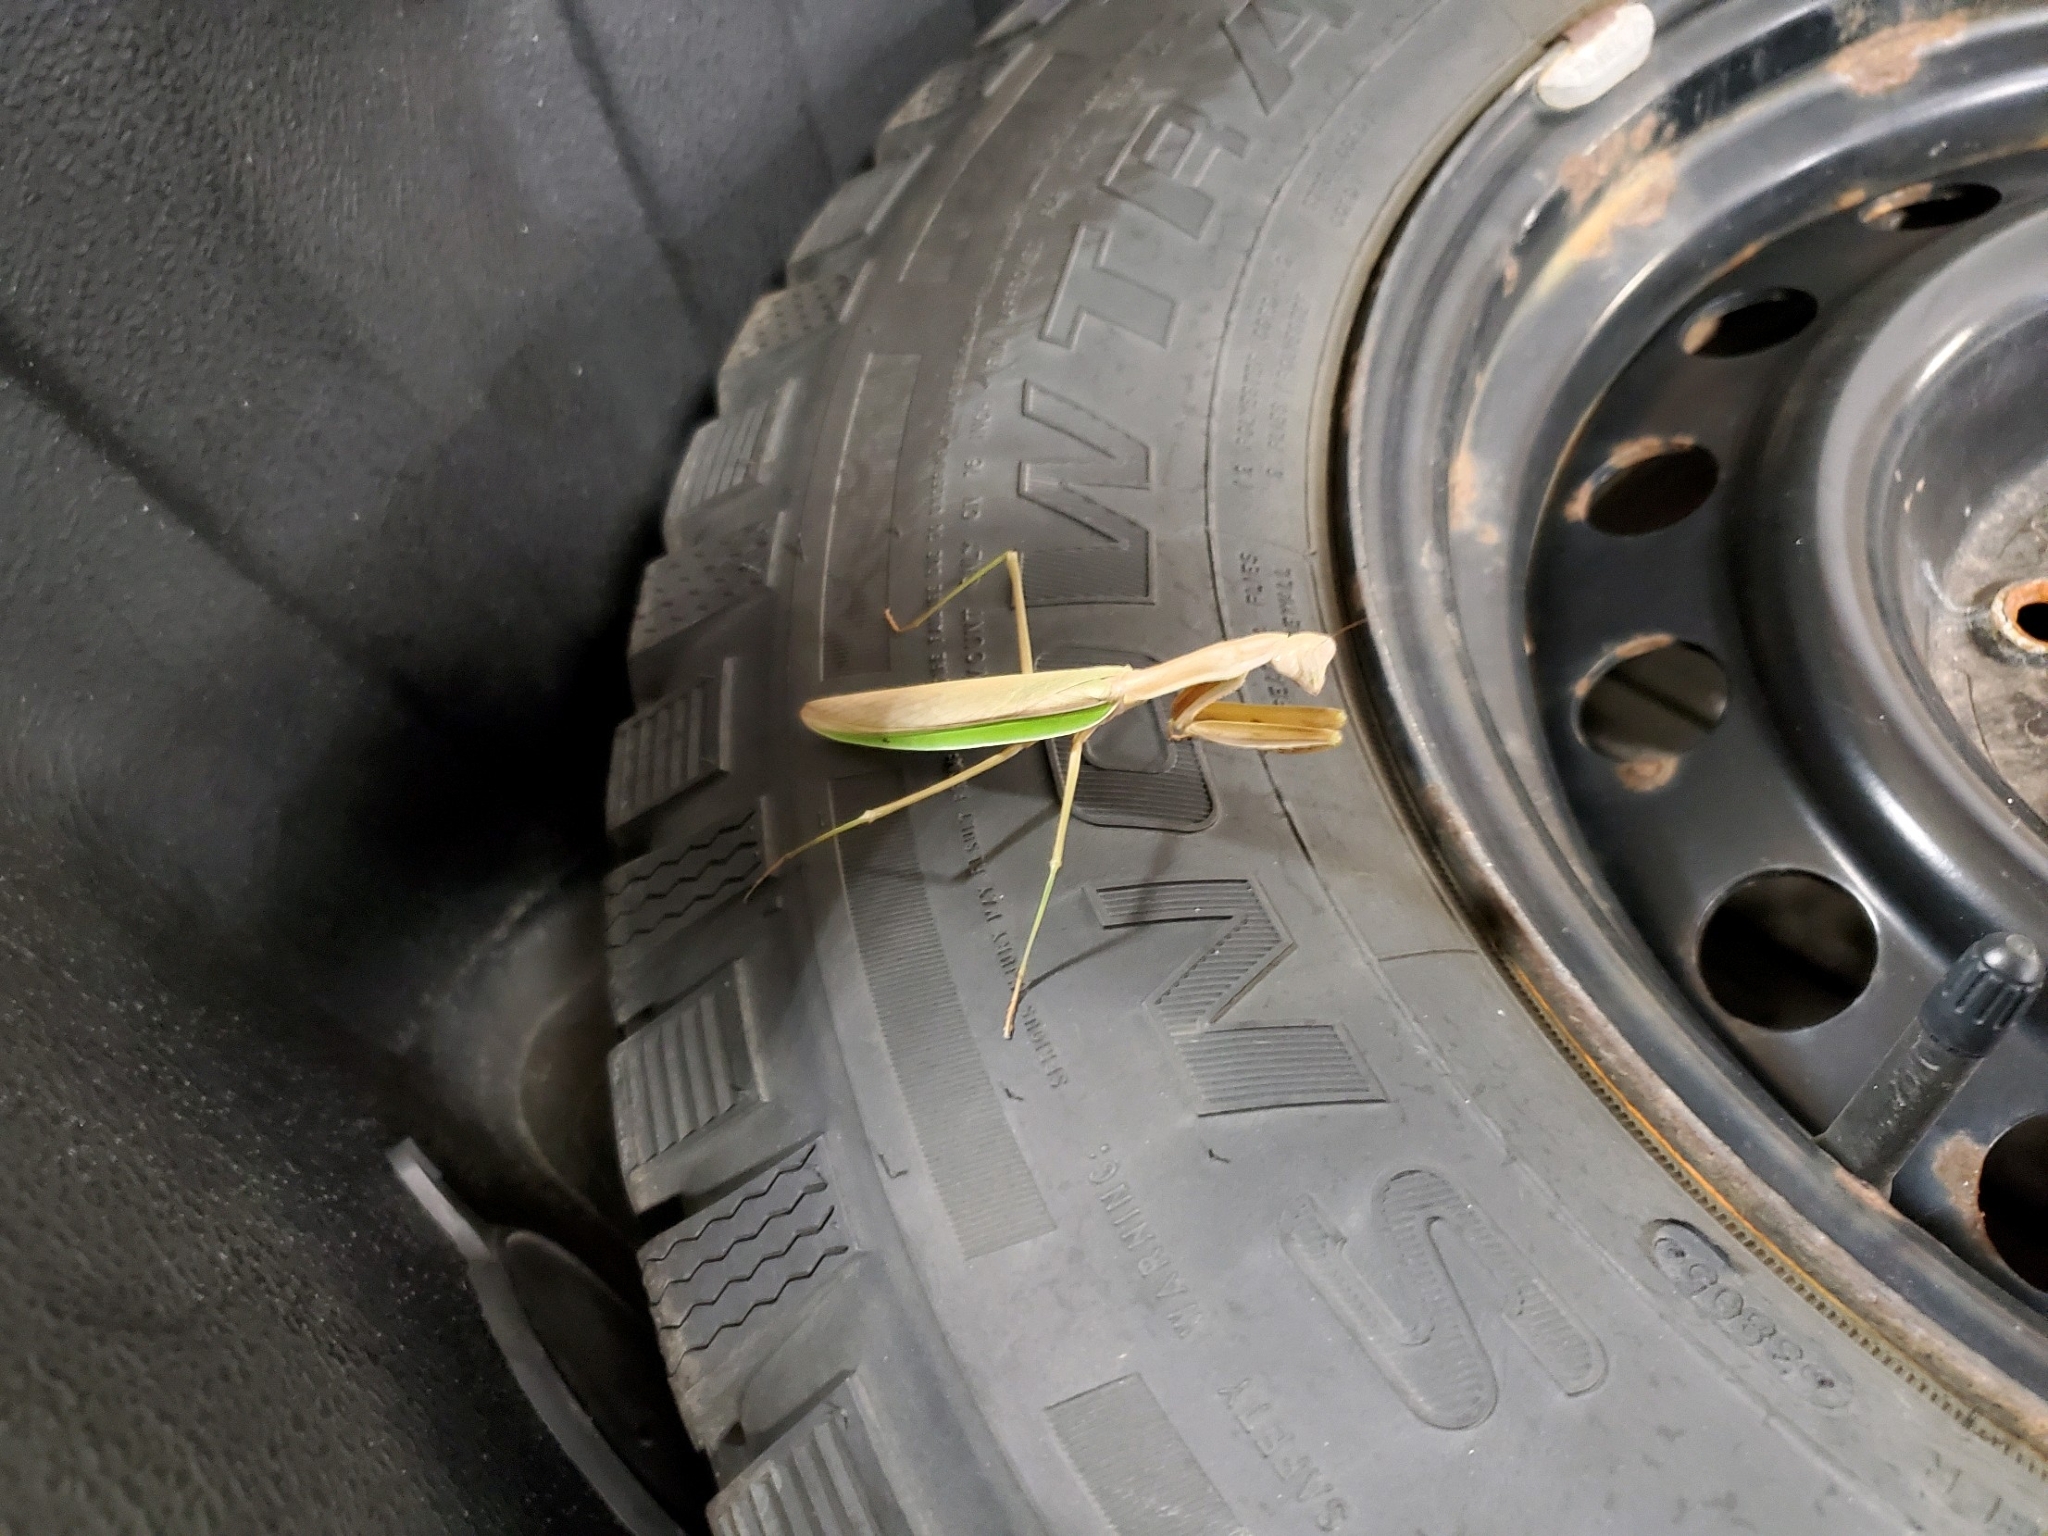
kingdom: Animalia
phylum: Arthropoda
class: Insecta
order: Mantodea
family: Mantidae
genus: Tenodera
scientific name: Tenodera sinensis
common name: Chinese mantis
